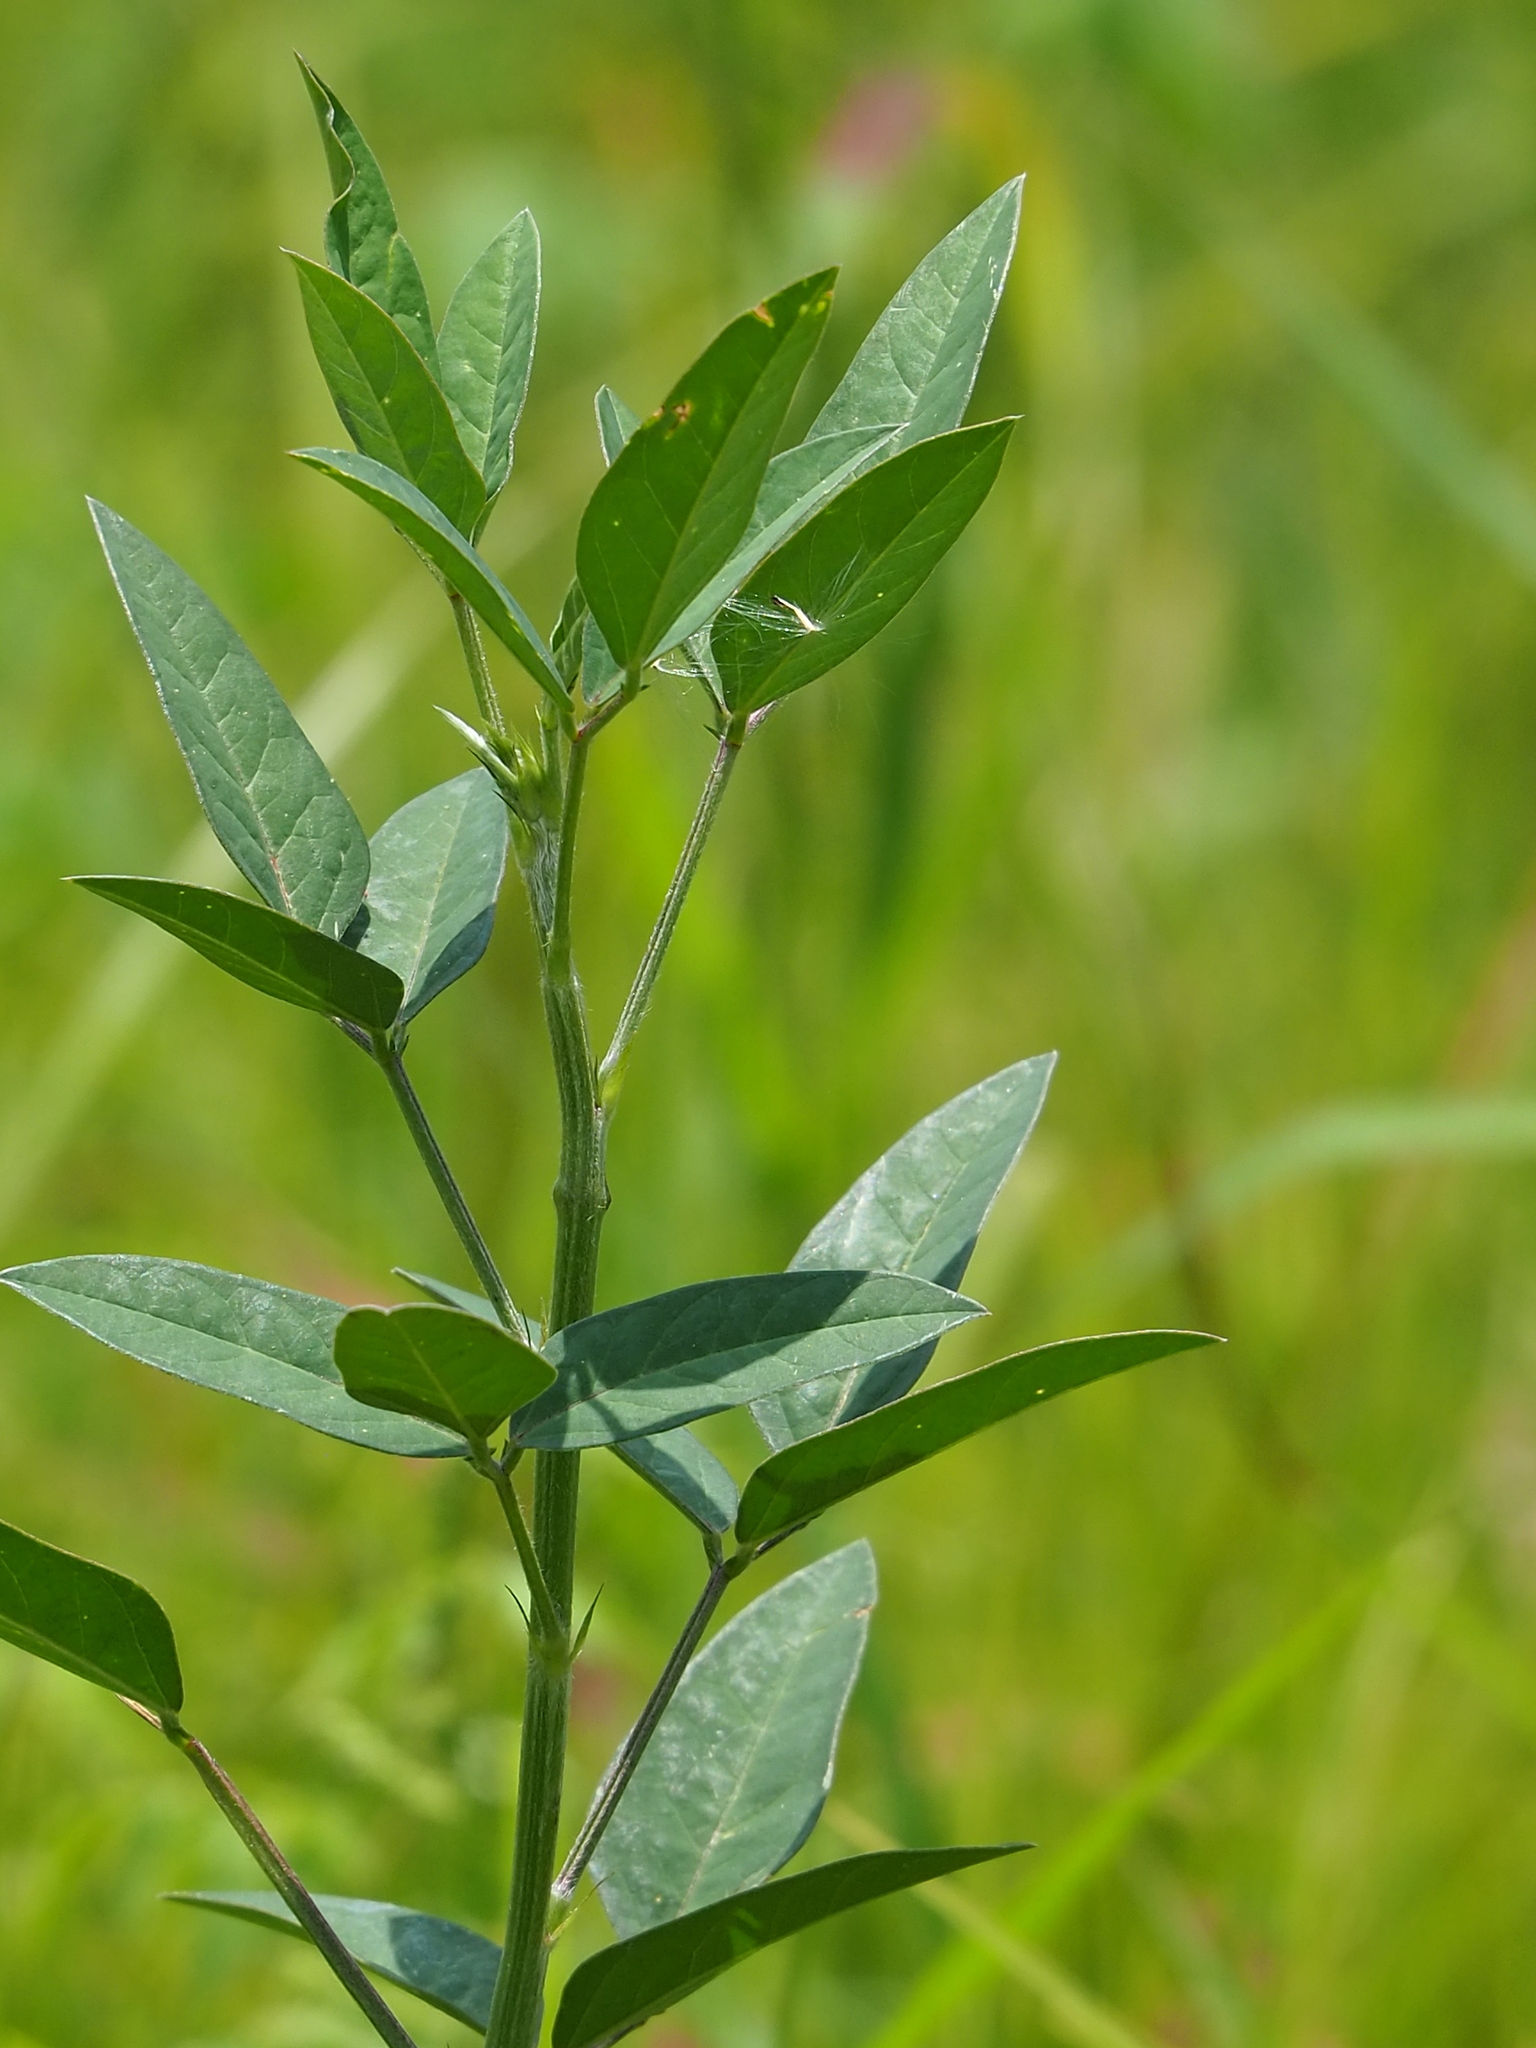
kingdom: Plantae
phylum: Tracheophyta
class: Magnoliopsida
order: Fabales
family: Fabaceae
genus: Macroptilium
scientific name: Macroptilium lathyroides
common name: Wild bushbean
